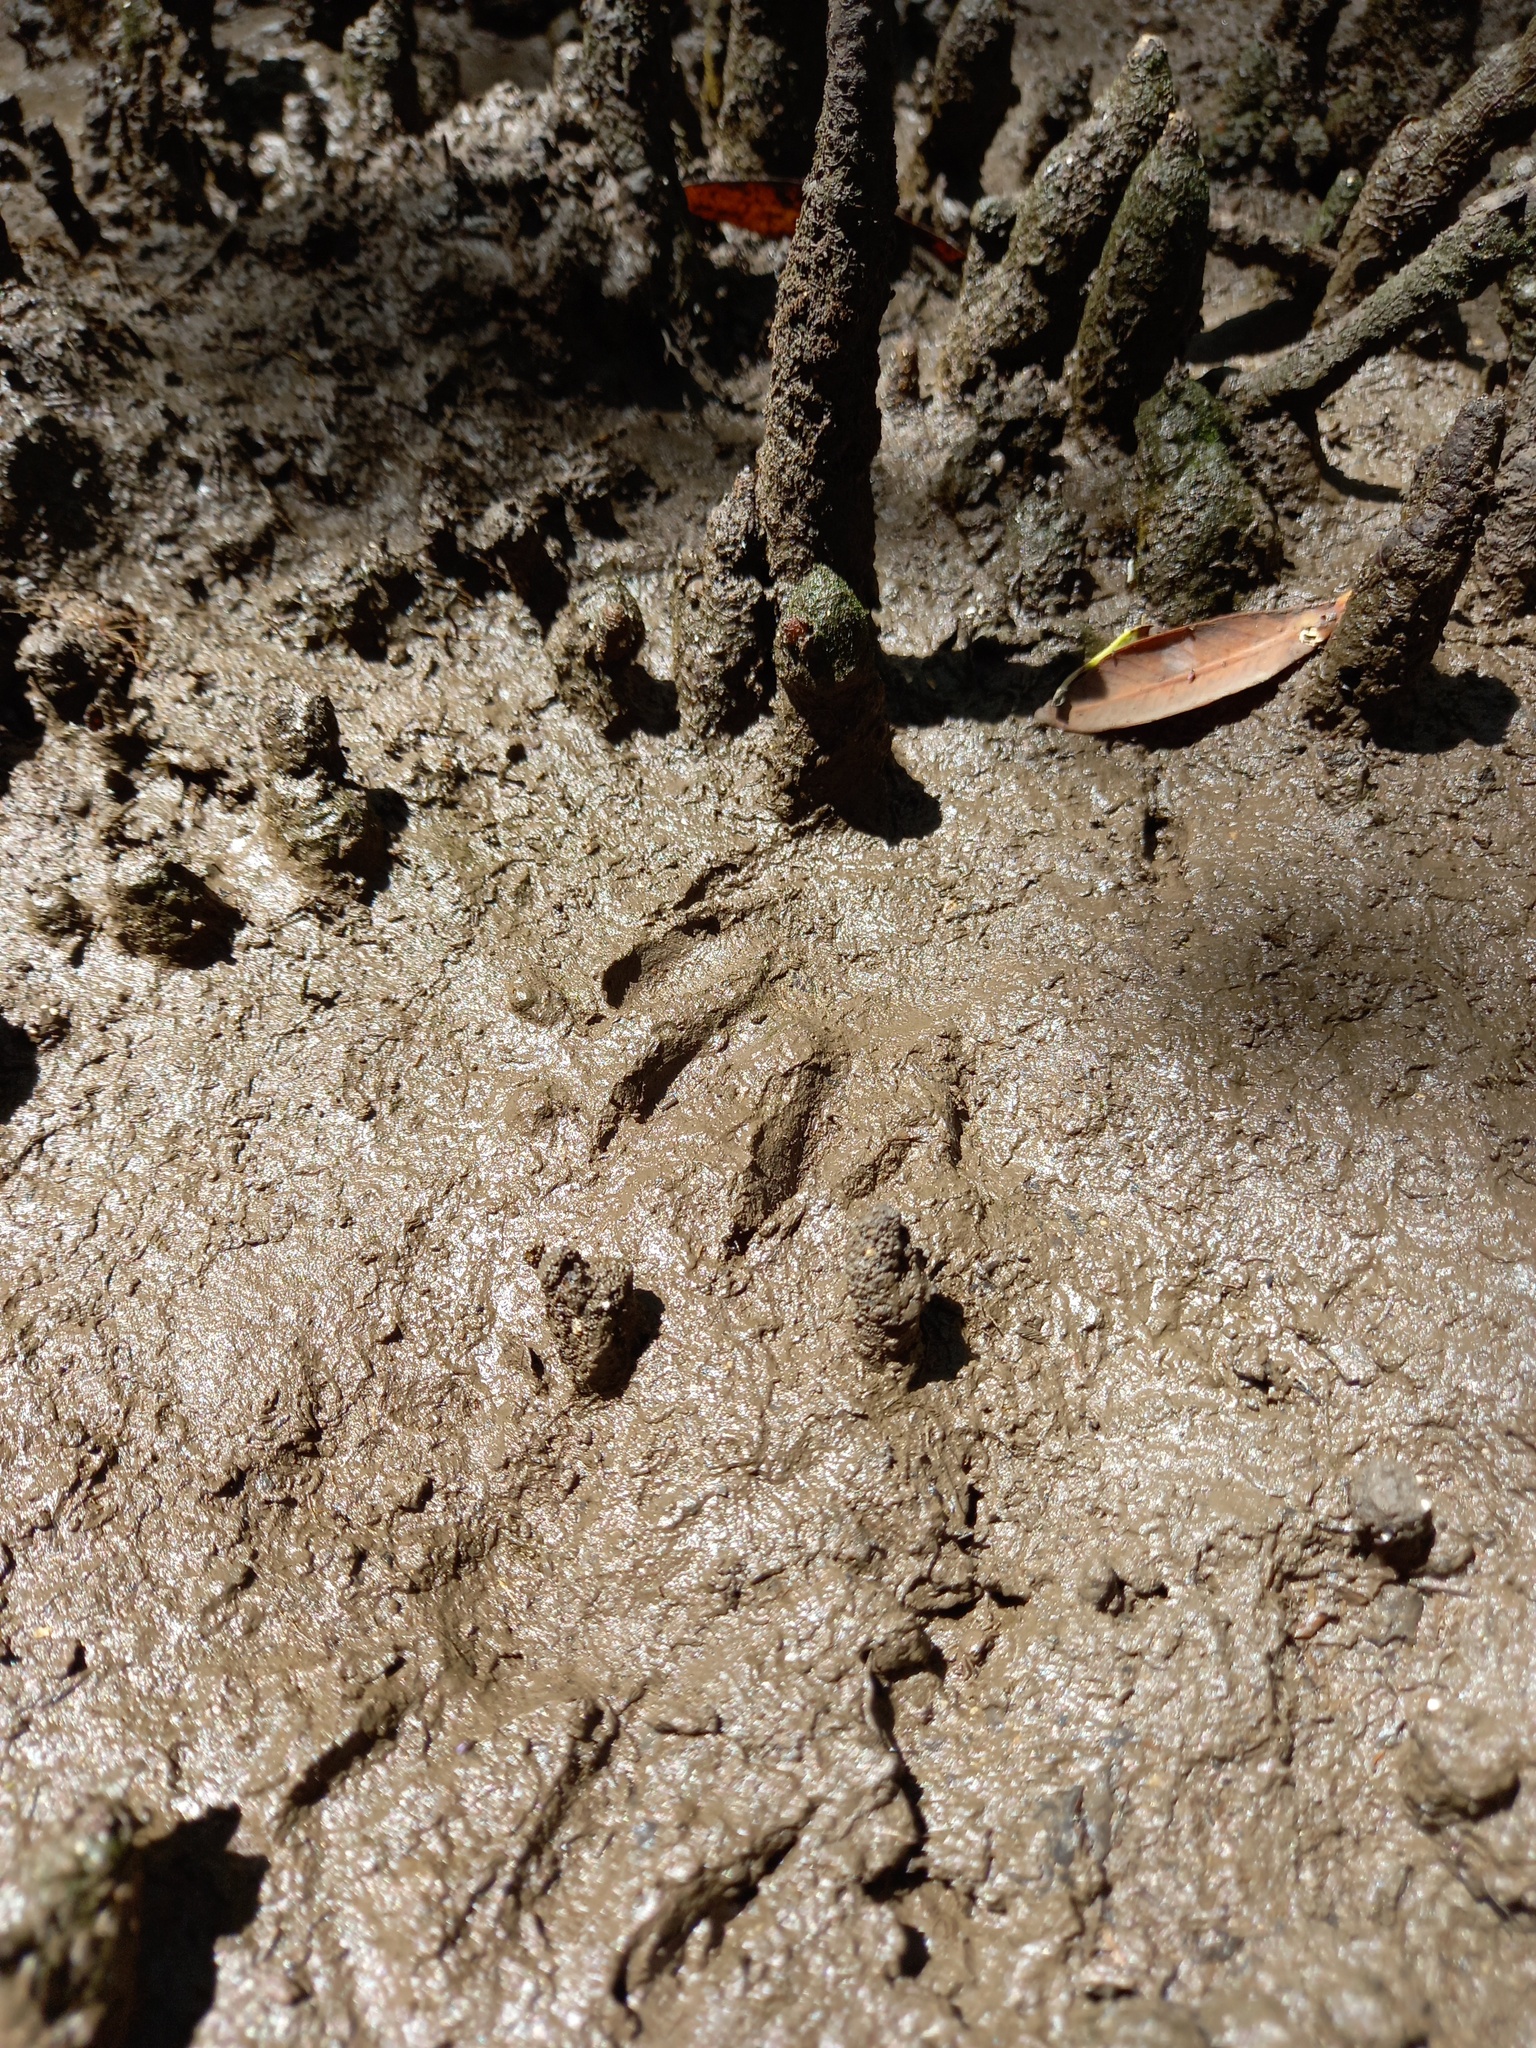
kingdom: Animalia
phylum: Chordata
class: Mammalia
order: Carnivora
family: Procyonidae
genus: Procyon
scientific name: Procyon lotor
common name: Raccoon
